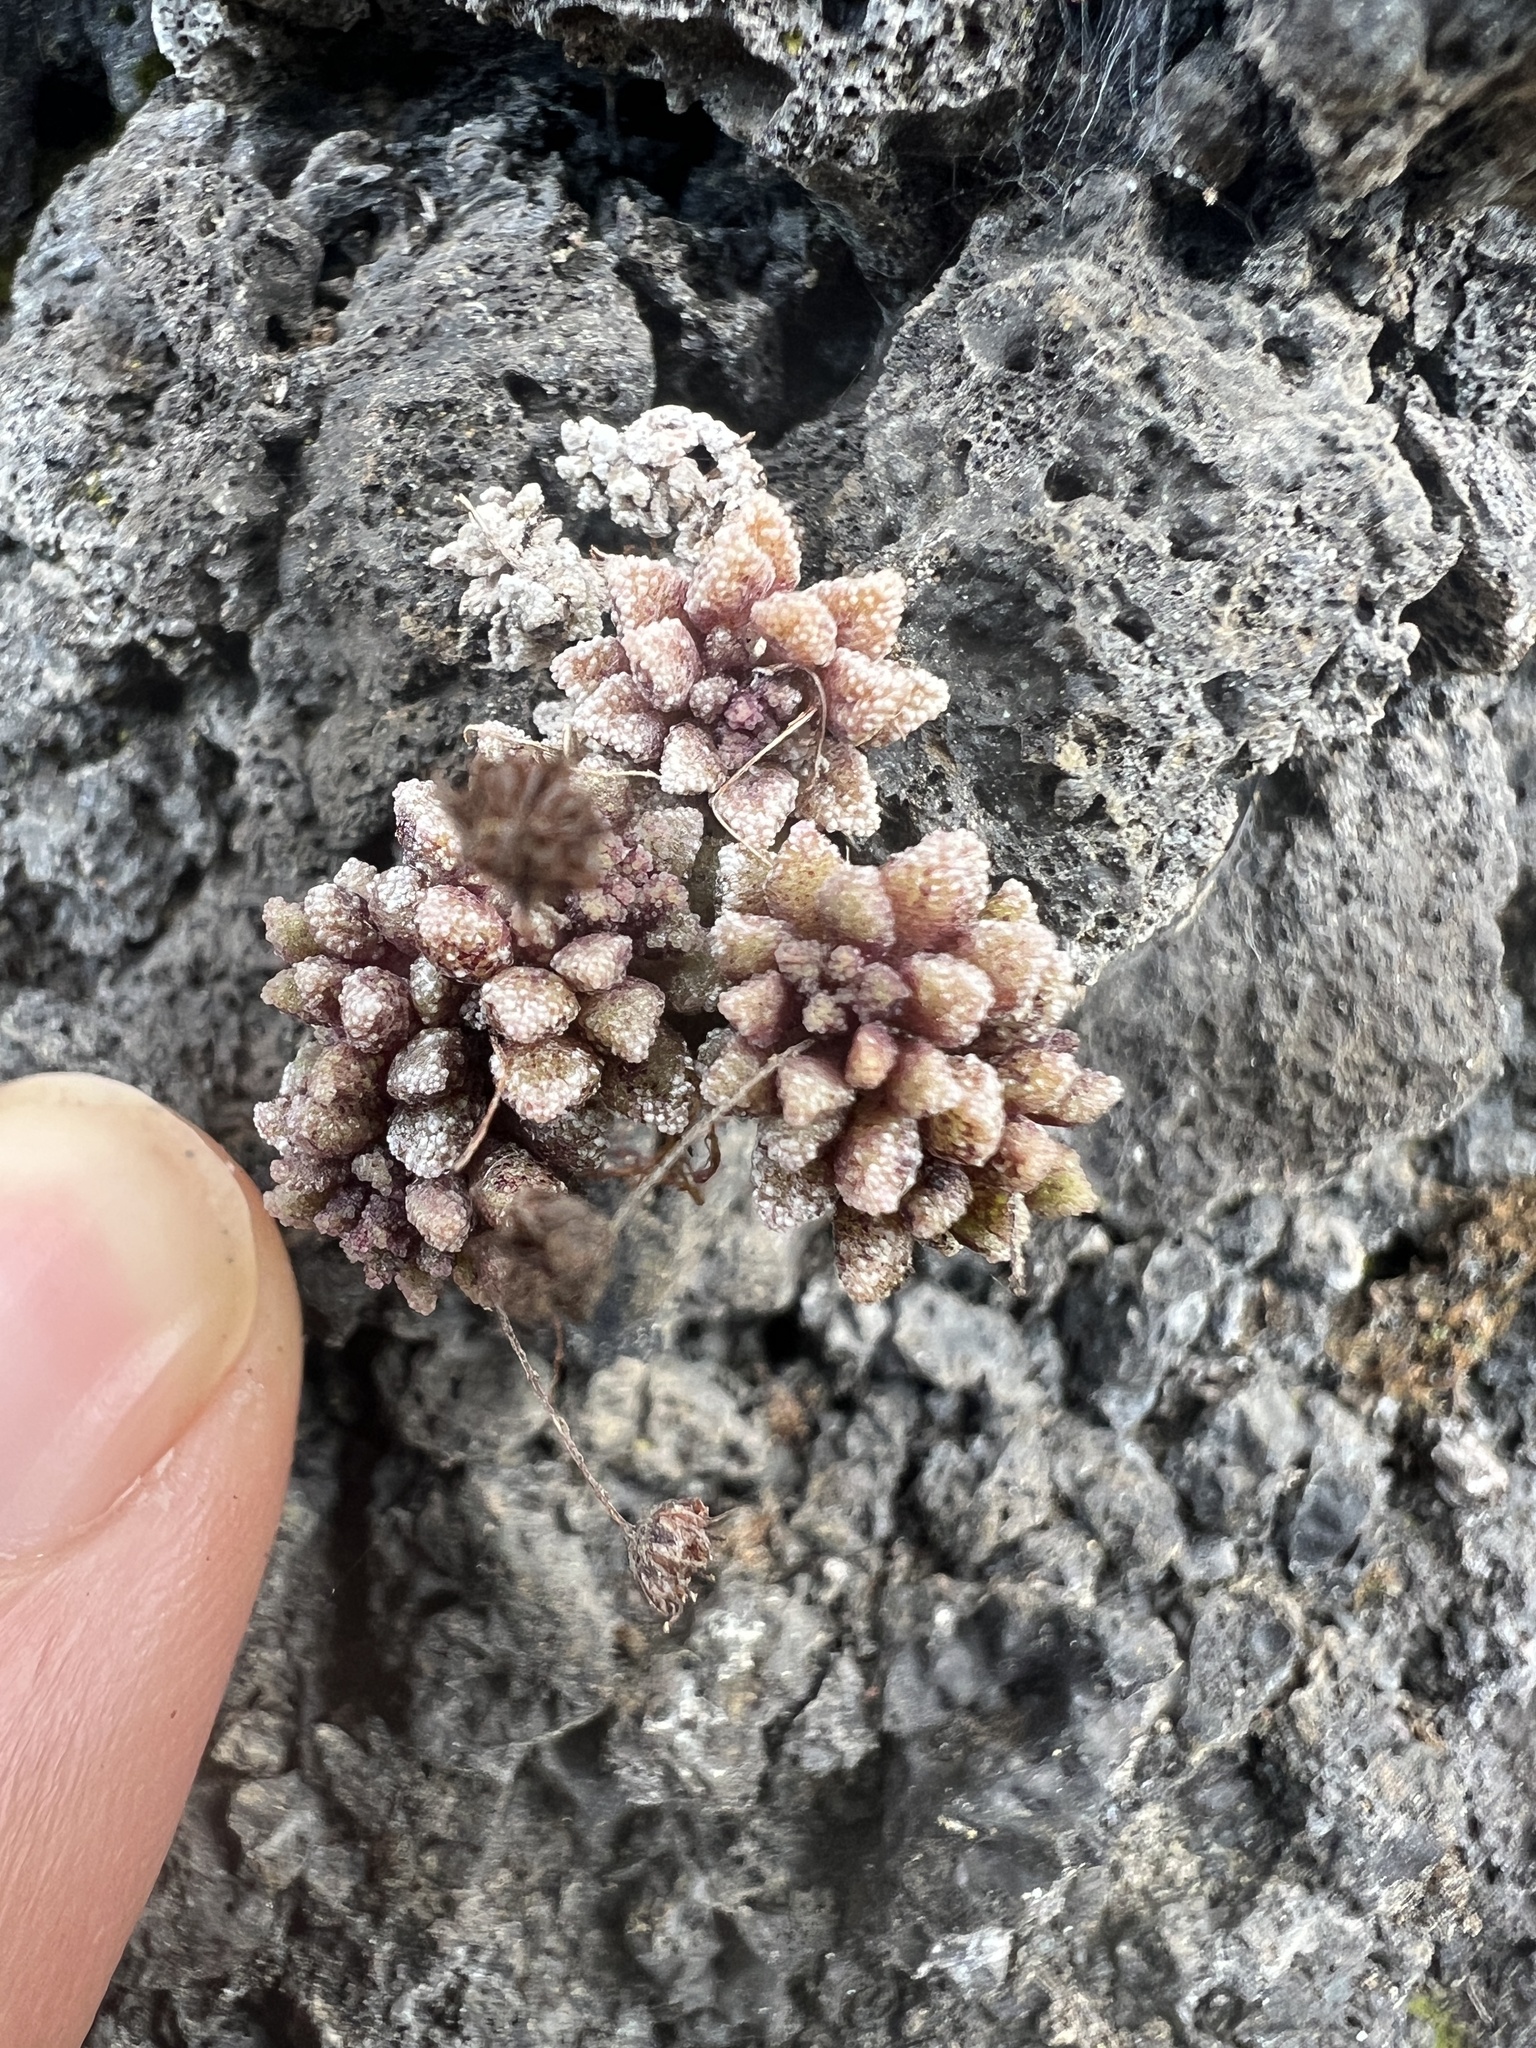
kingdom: Plantae
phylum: Tracheophyta
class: Magnoliopsida
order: Saxifragales
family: Crassulaceae
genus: Monanthes
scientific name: Monanthes muralis
